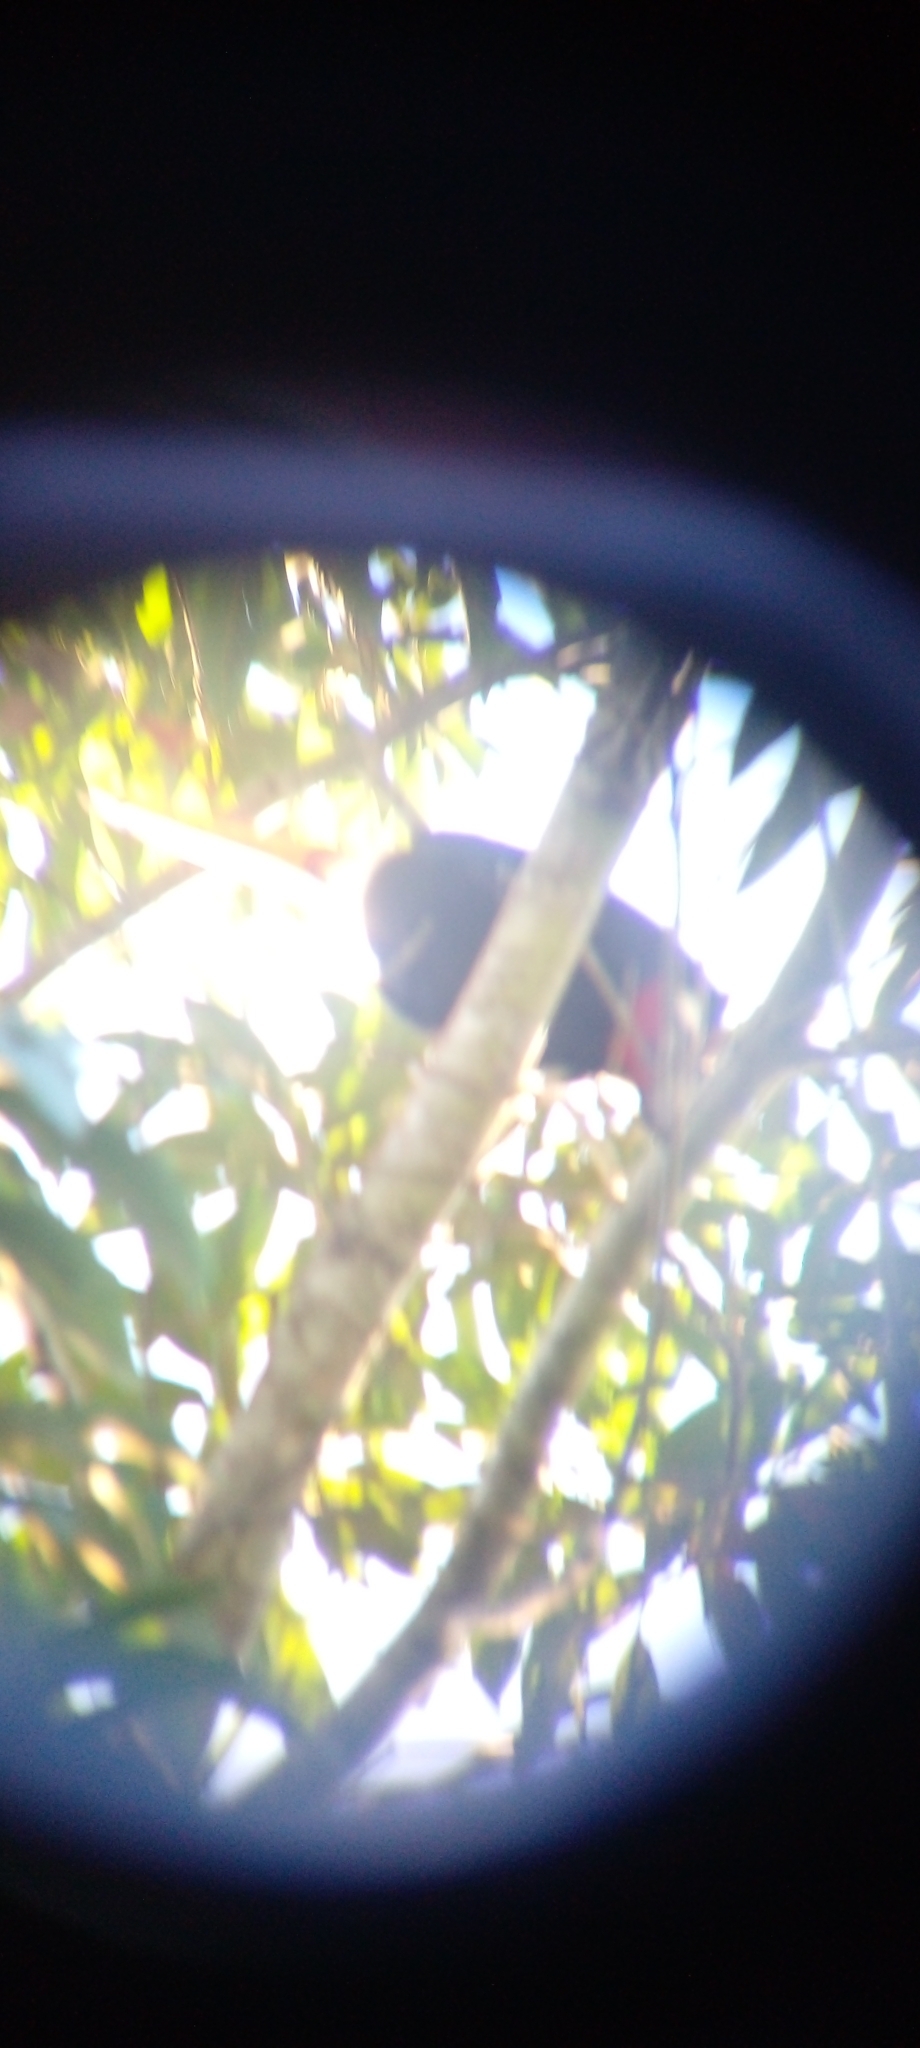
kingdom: Animalia
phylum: Chordata
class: Aves
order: Piciformes
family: Ramphastidae
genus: Ramphastos
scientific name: Ramphastos toco
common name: Toco toucan
